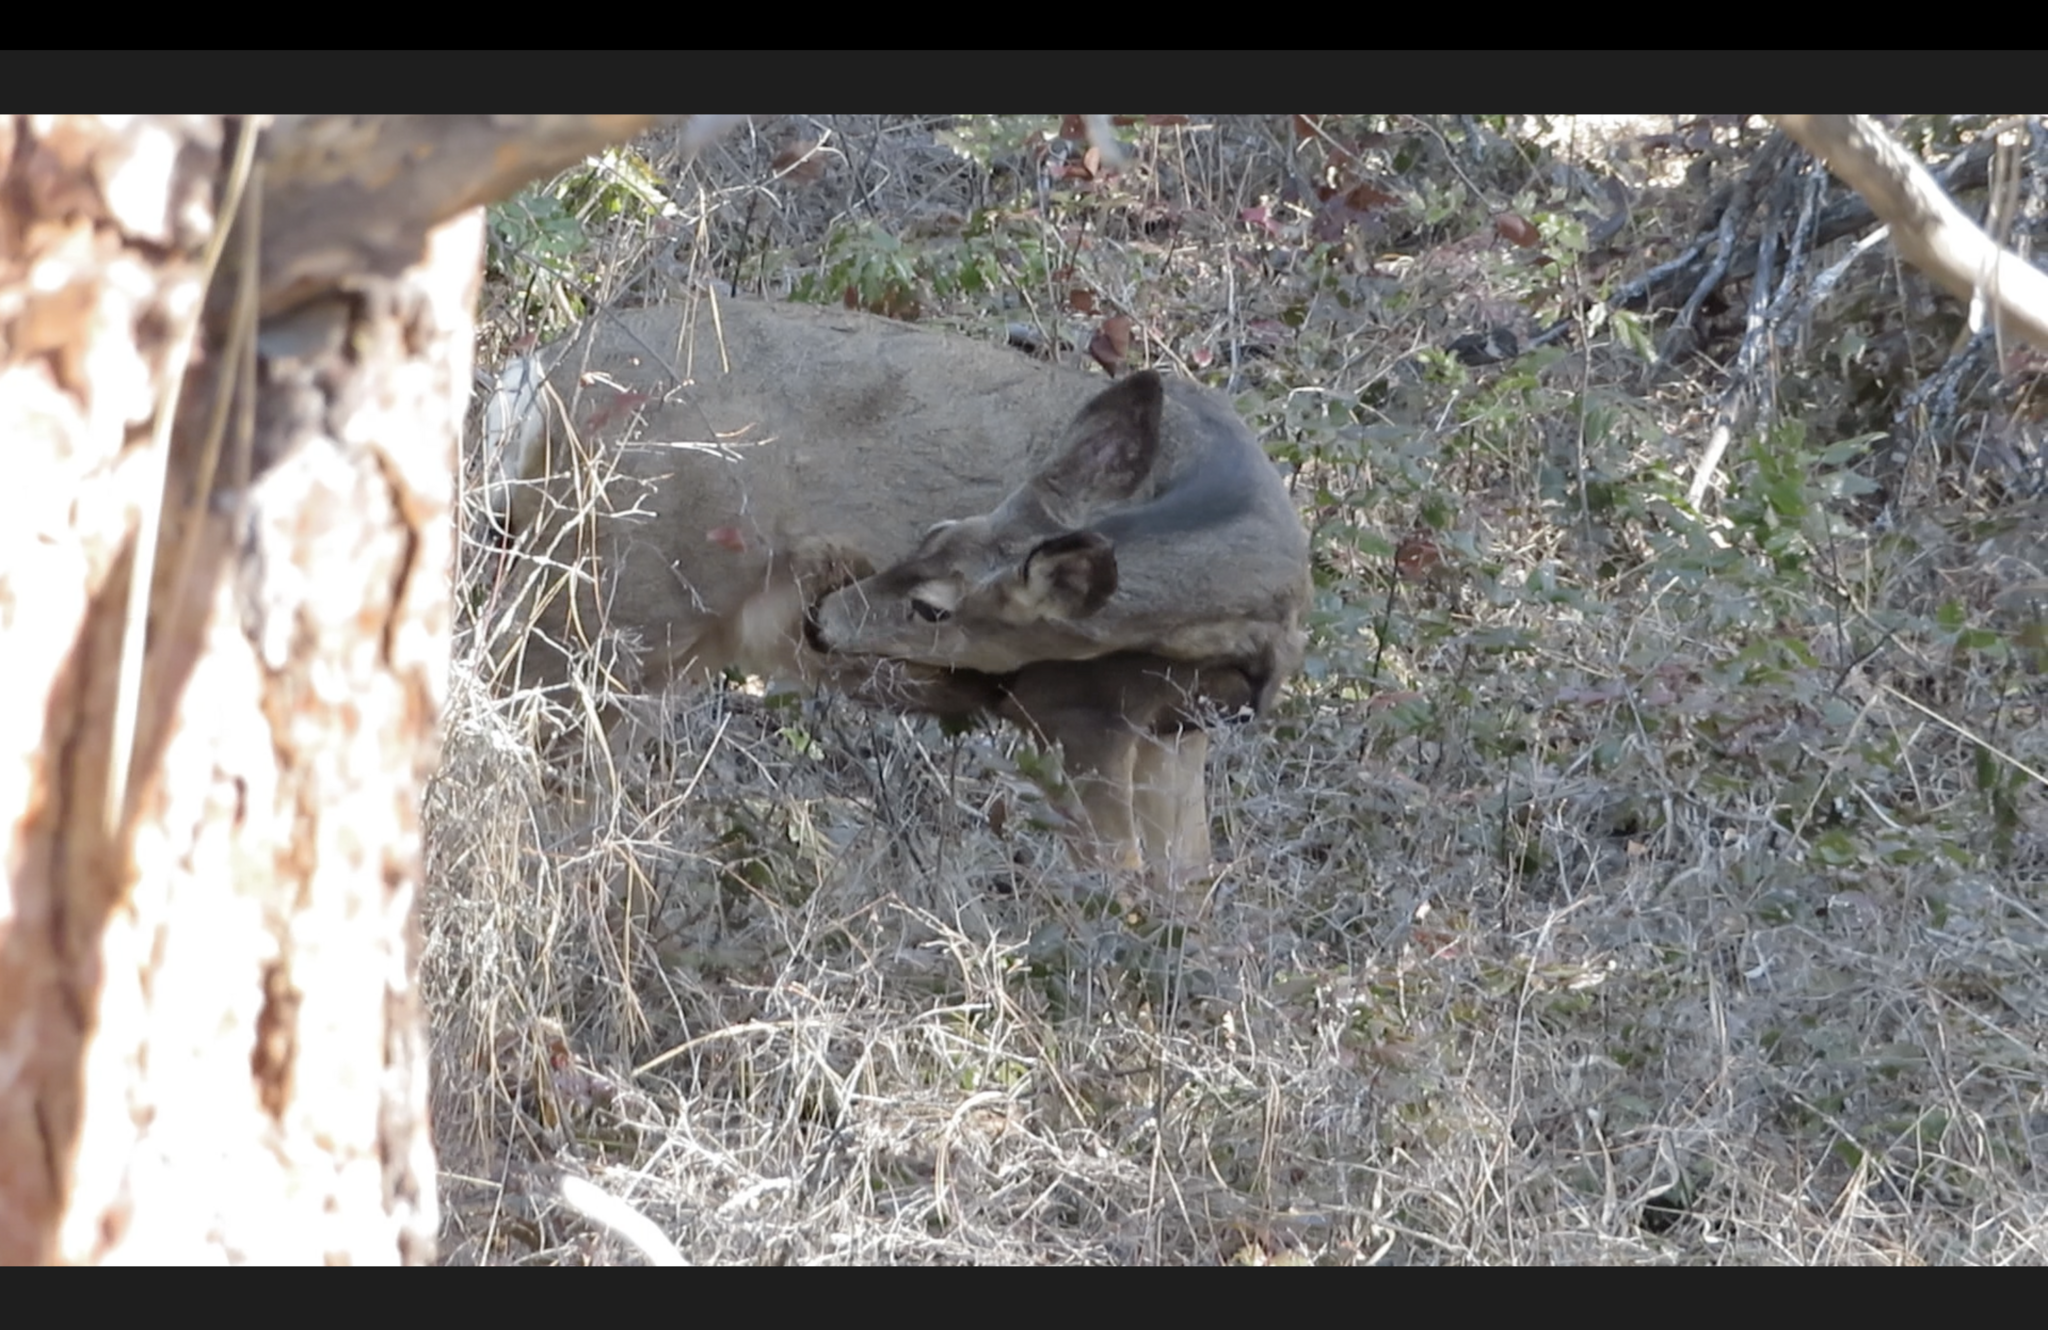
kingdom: Animalia
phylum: Chordata
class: Mammalia
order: Artiodactyla
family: Cervidae
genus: Odocoileus
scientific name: Odocoileus hemionus
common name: Mule deer
